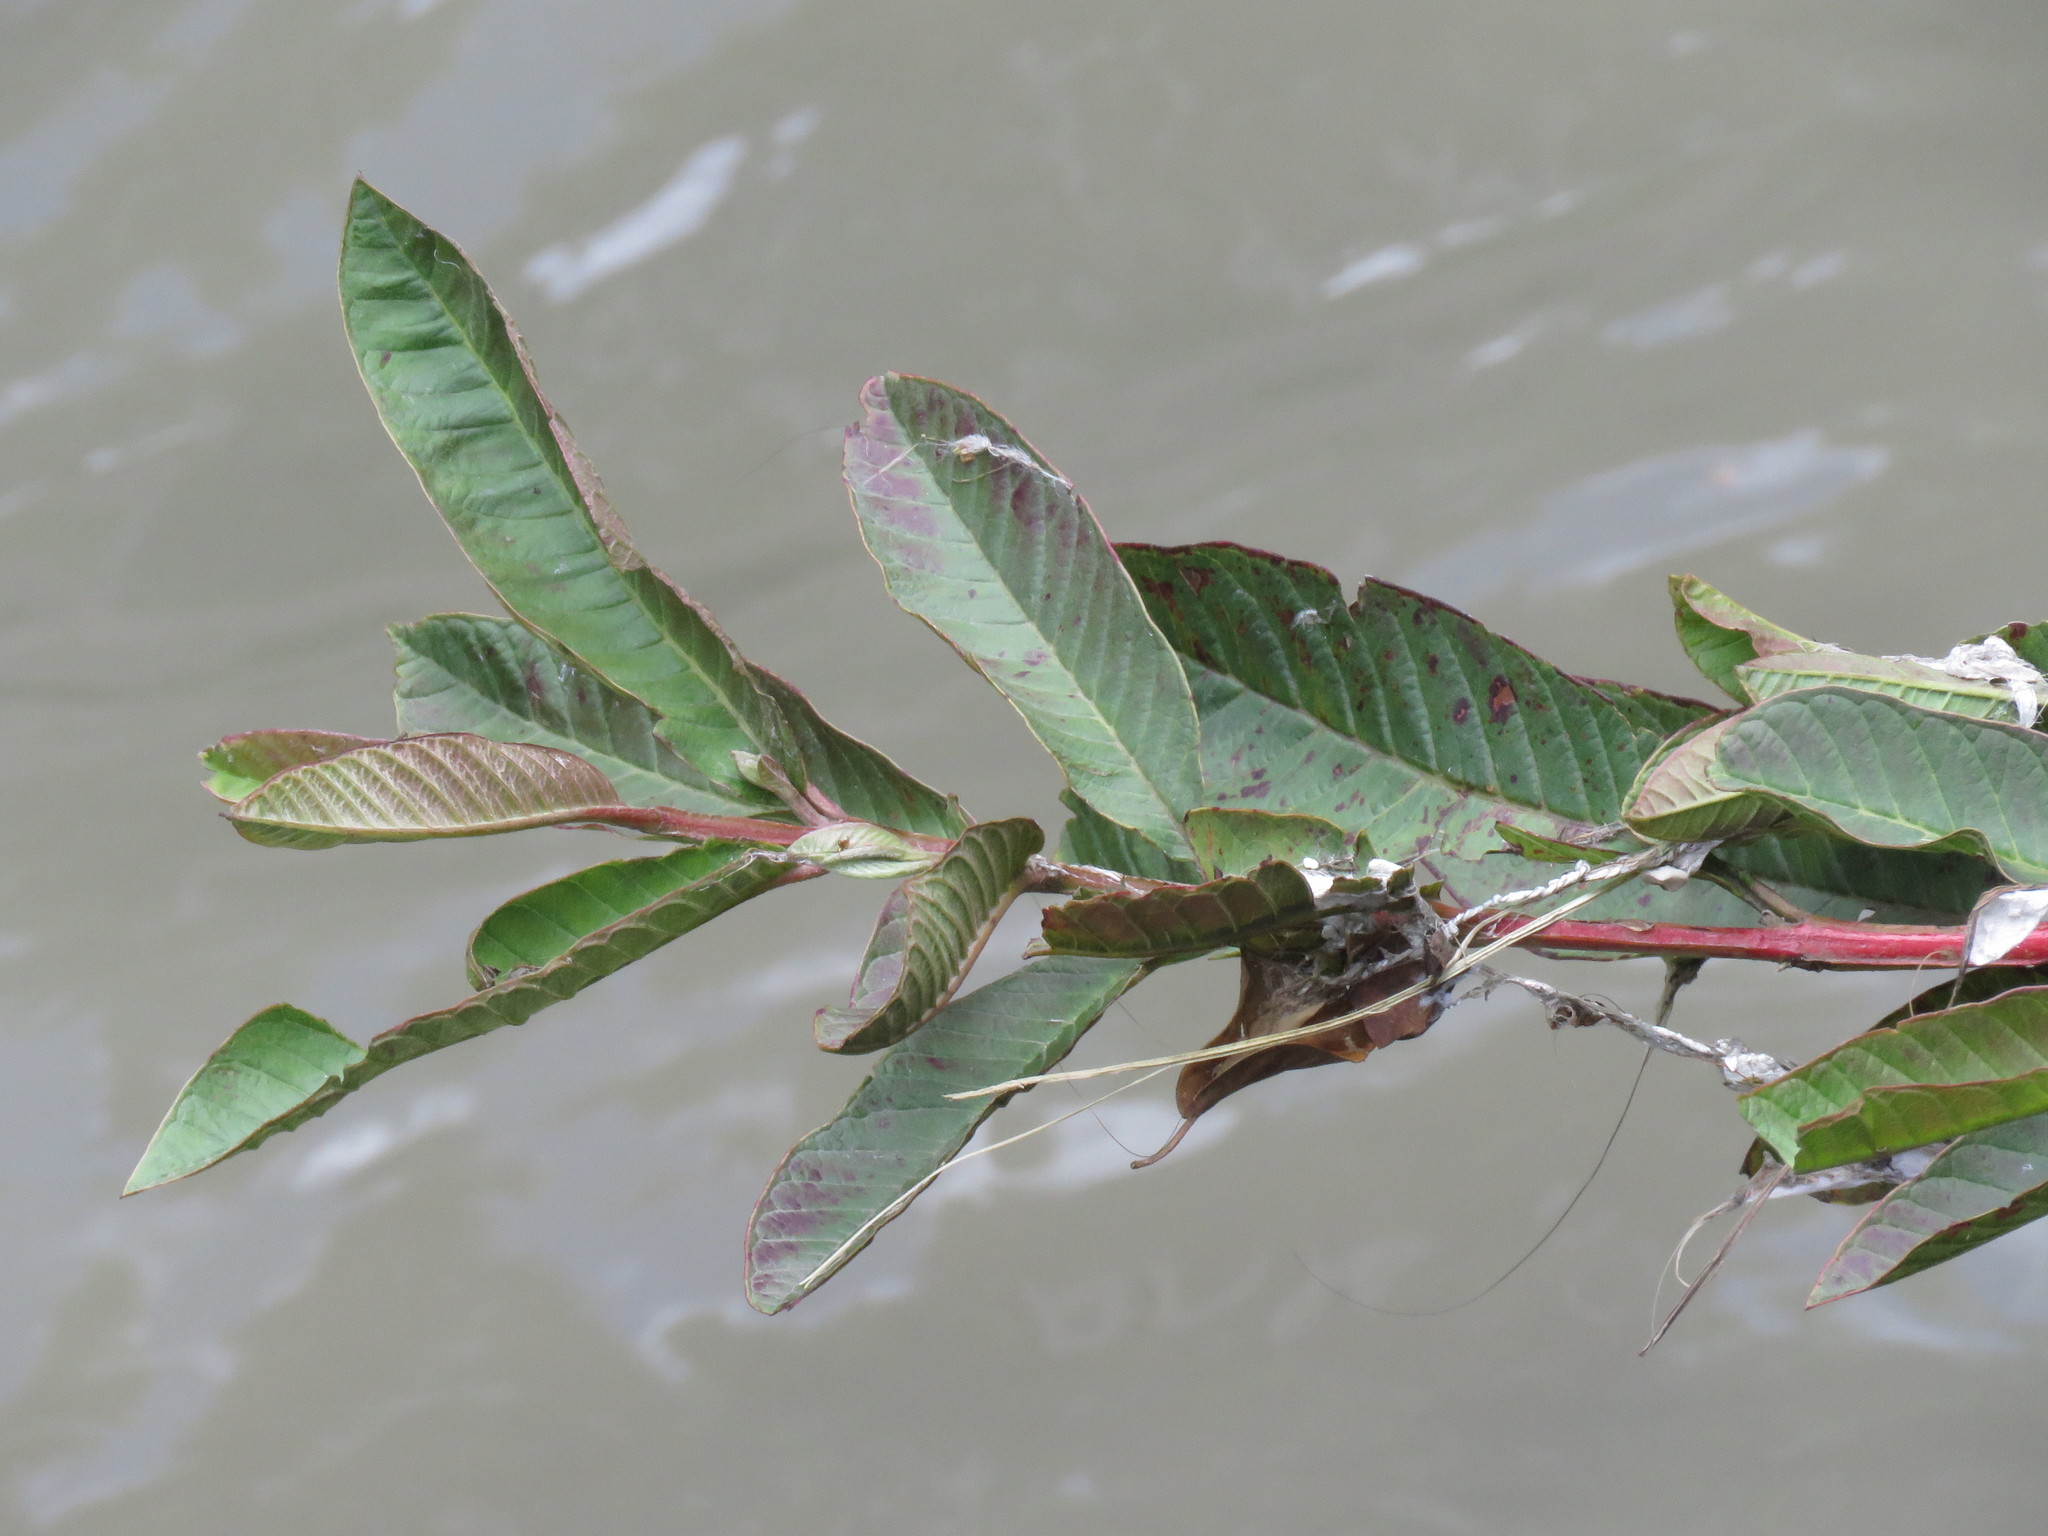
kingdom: Plantae
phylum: Tracheophyta
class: Magnoliopsida
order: Myrtales
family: Myrtaceae
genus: Psidium
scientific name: Psidium guajava
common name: Guava
